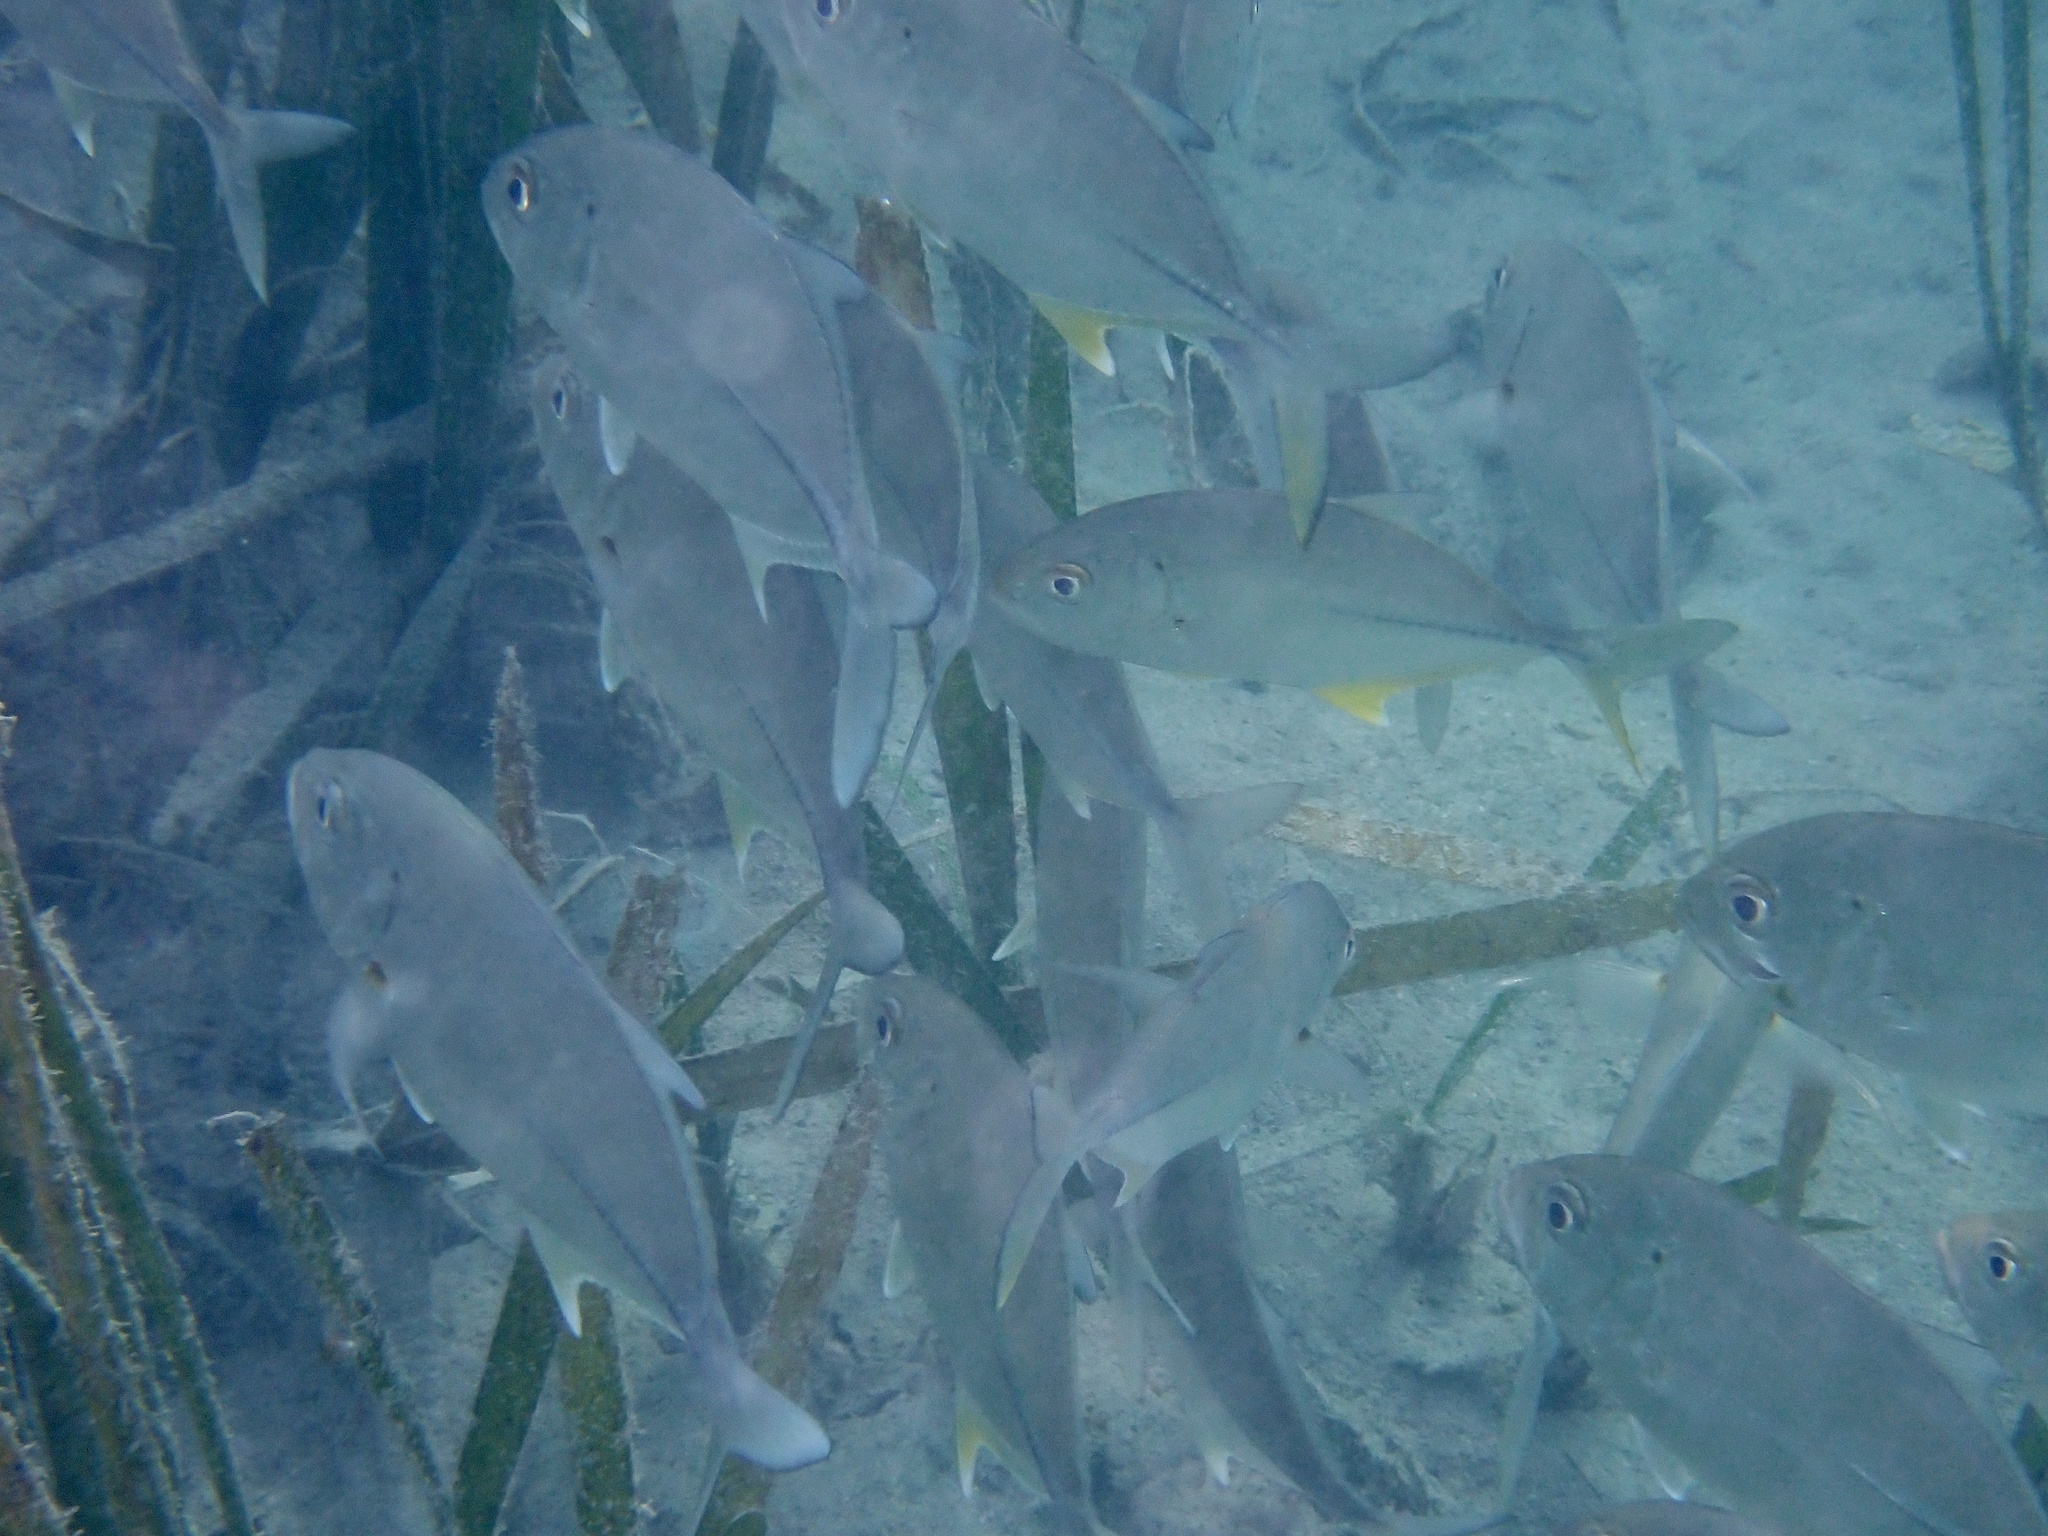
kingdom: Animalia
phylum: Chordata
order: Perciformes
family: Carangidae
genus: Caranx
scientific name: Caranx sexfasciatus
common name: Bigeye trevally
